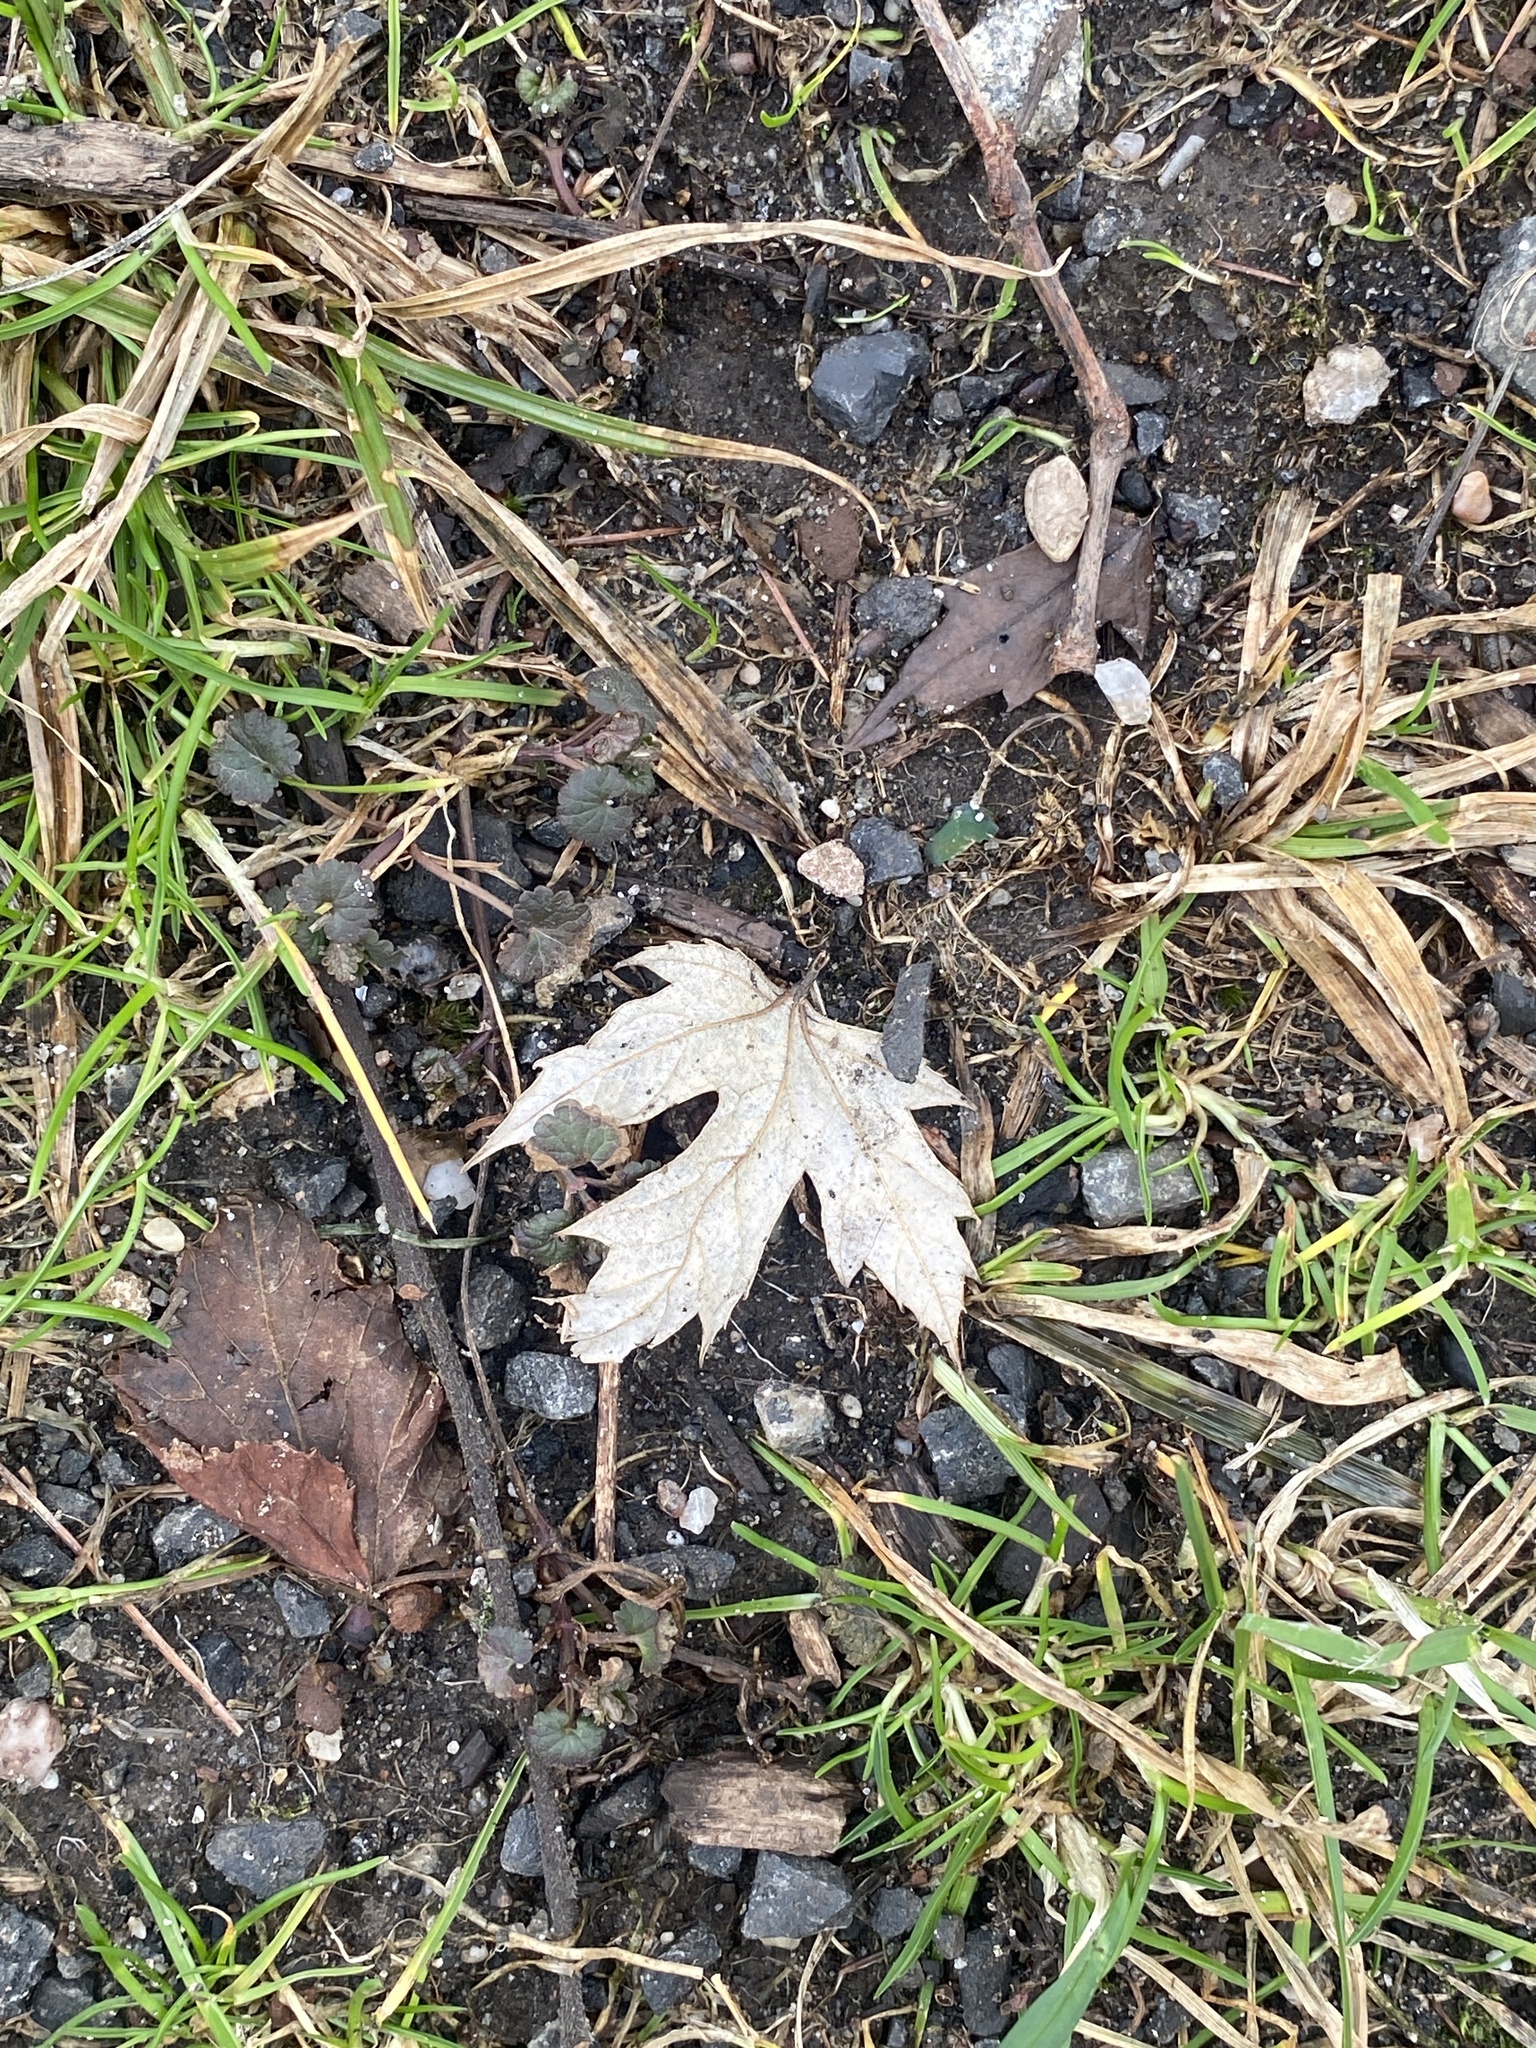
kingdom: Plantae
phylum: Tracheophyta
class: Magnoliopsida
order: Sapindales
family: Sapindaceae
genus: Acer
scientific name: Acer saccharinum
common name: Silver maple
